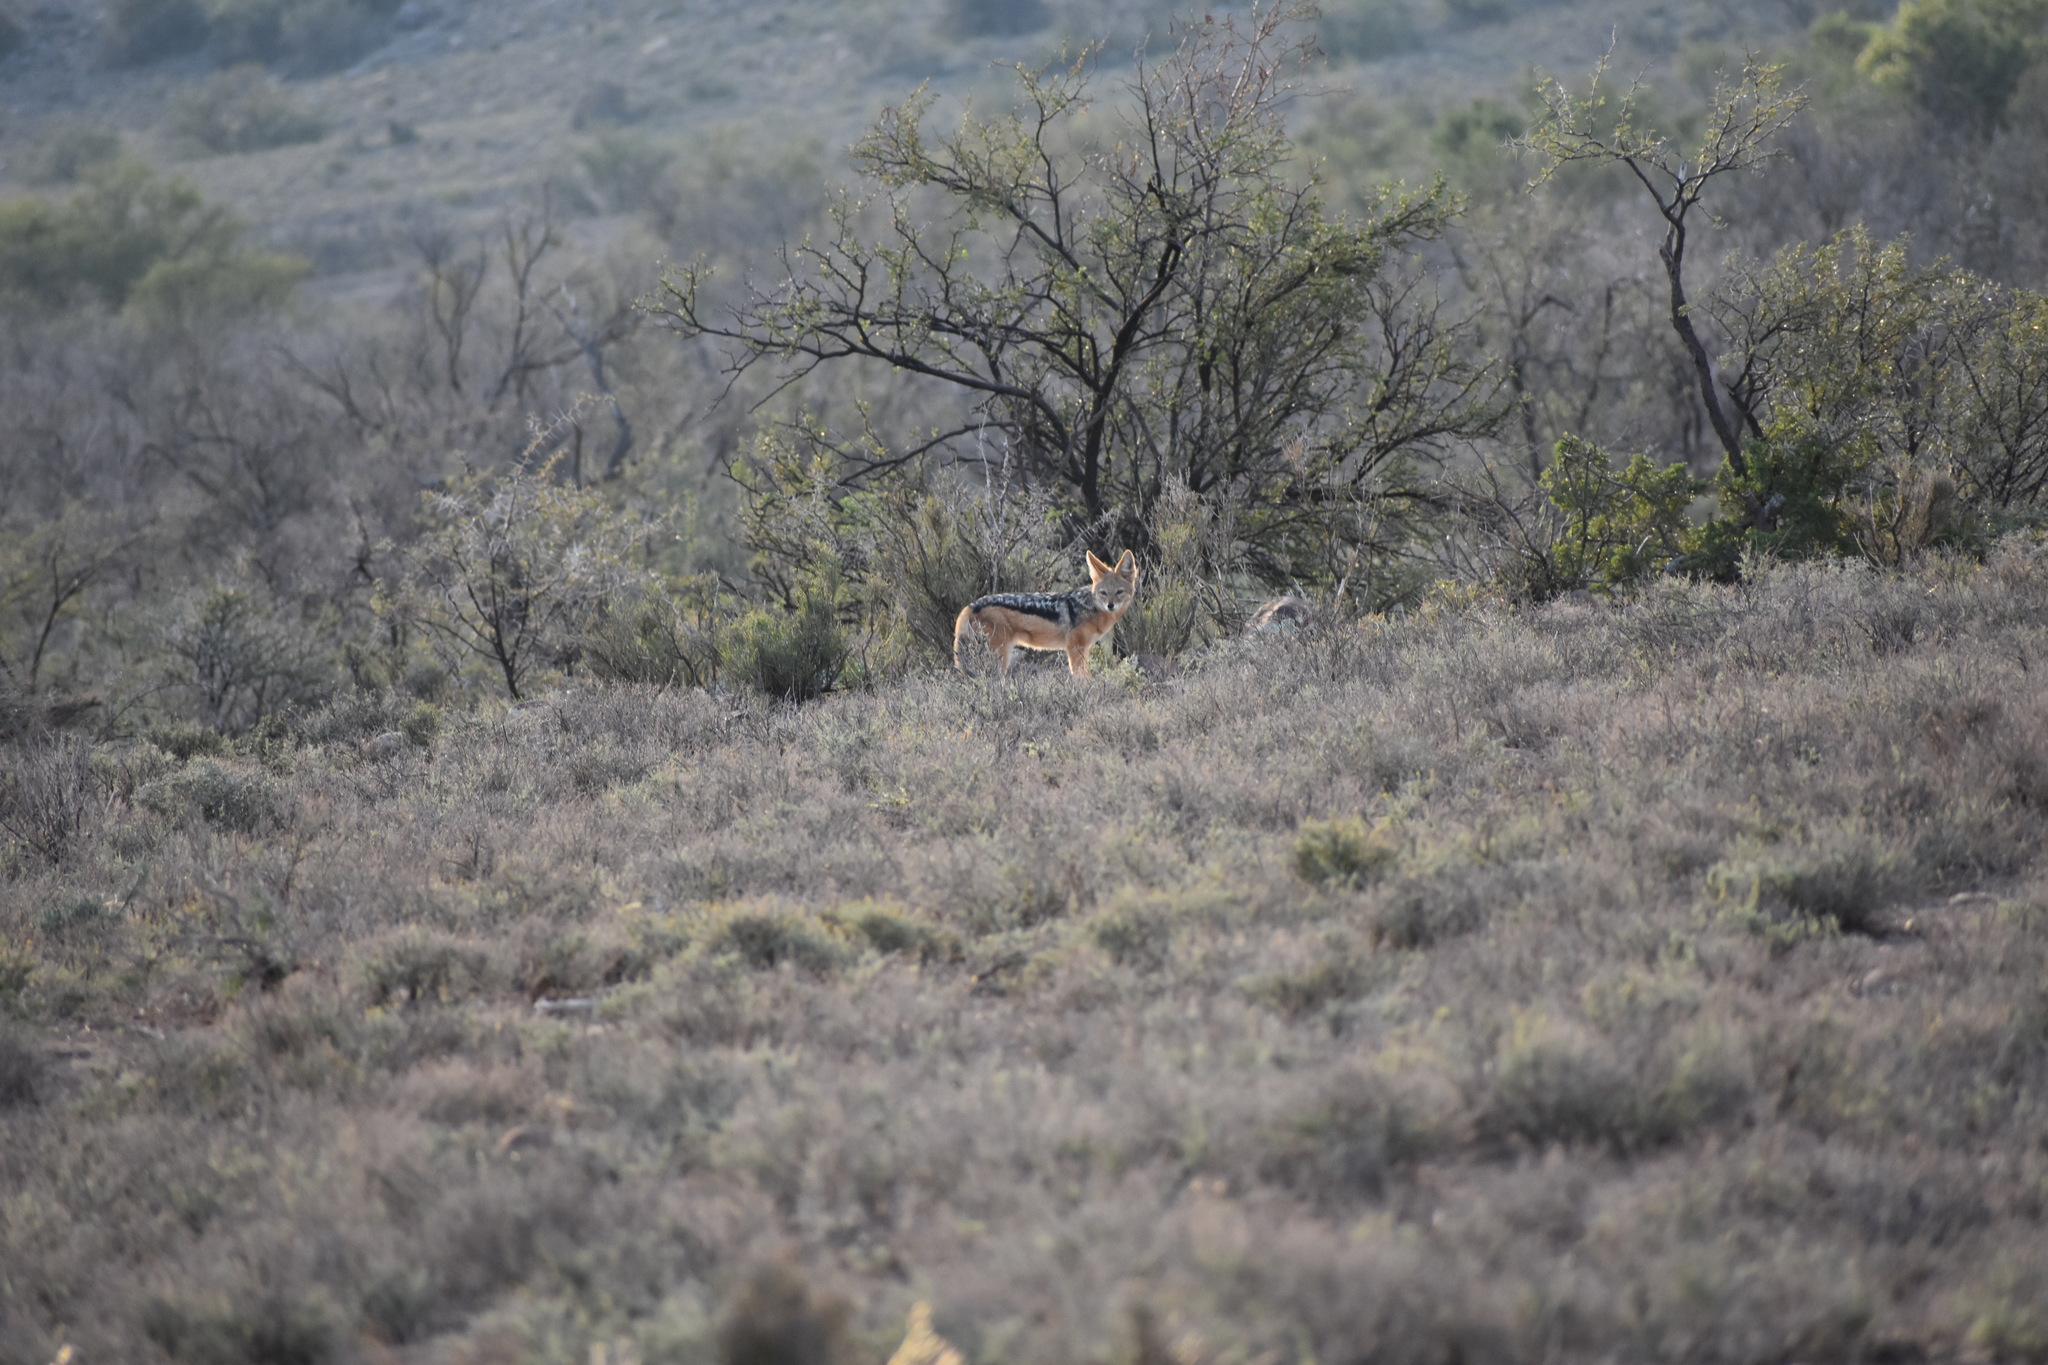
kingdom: Animalia
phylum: Chordata
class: Mammalia
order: Carnivora
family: Canidae
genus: Lupulella
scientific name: Lupulella
